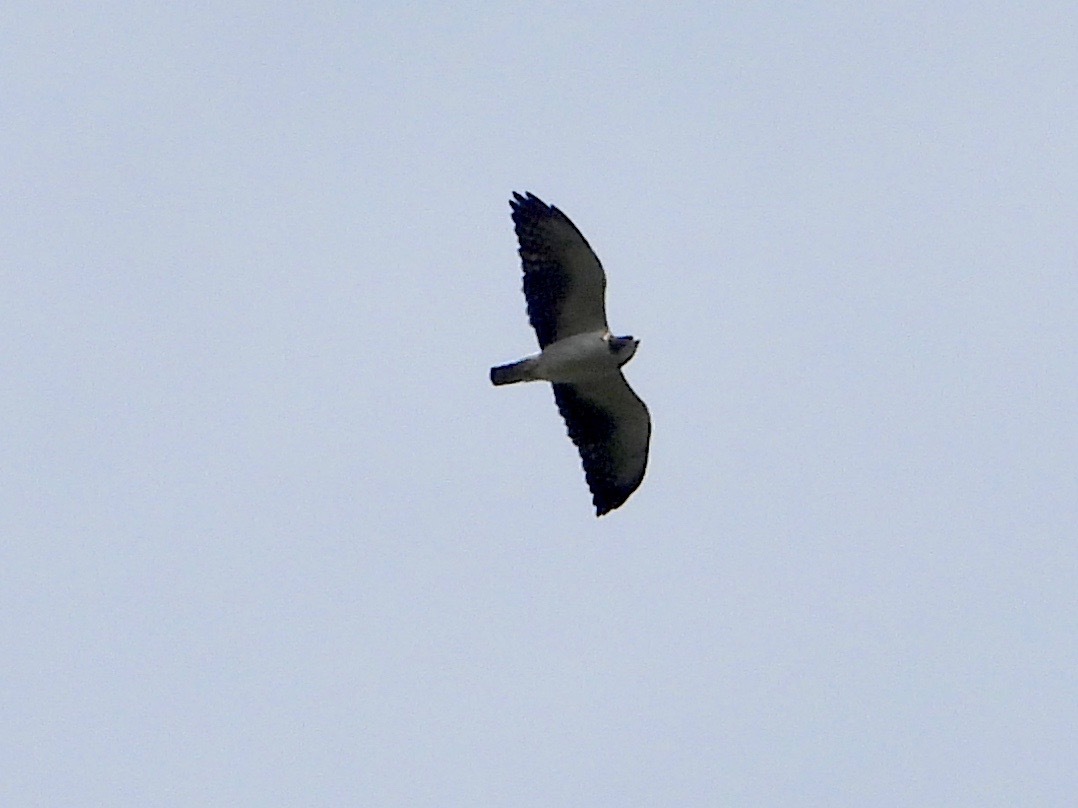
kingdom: Animalia
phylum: Chordata
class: Aves
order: Accipitriformes
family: Accipitridae
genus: Buteo
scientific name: Buteo brachyurus
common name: Short-tailed hawk
